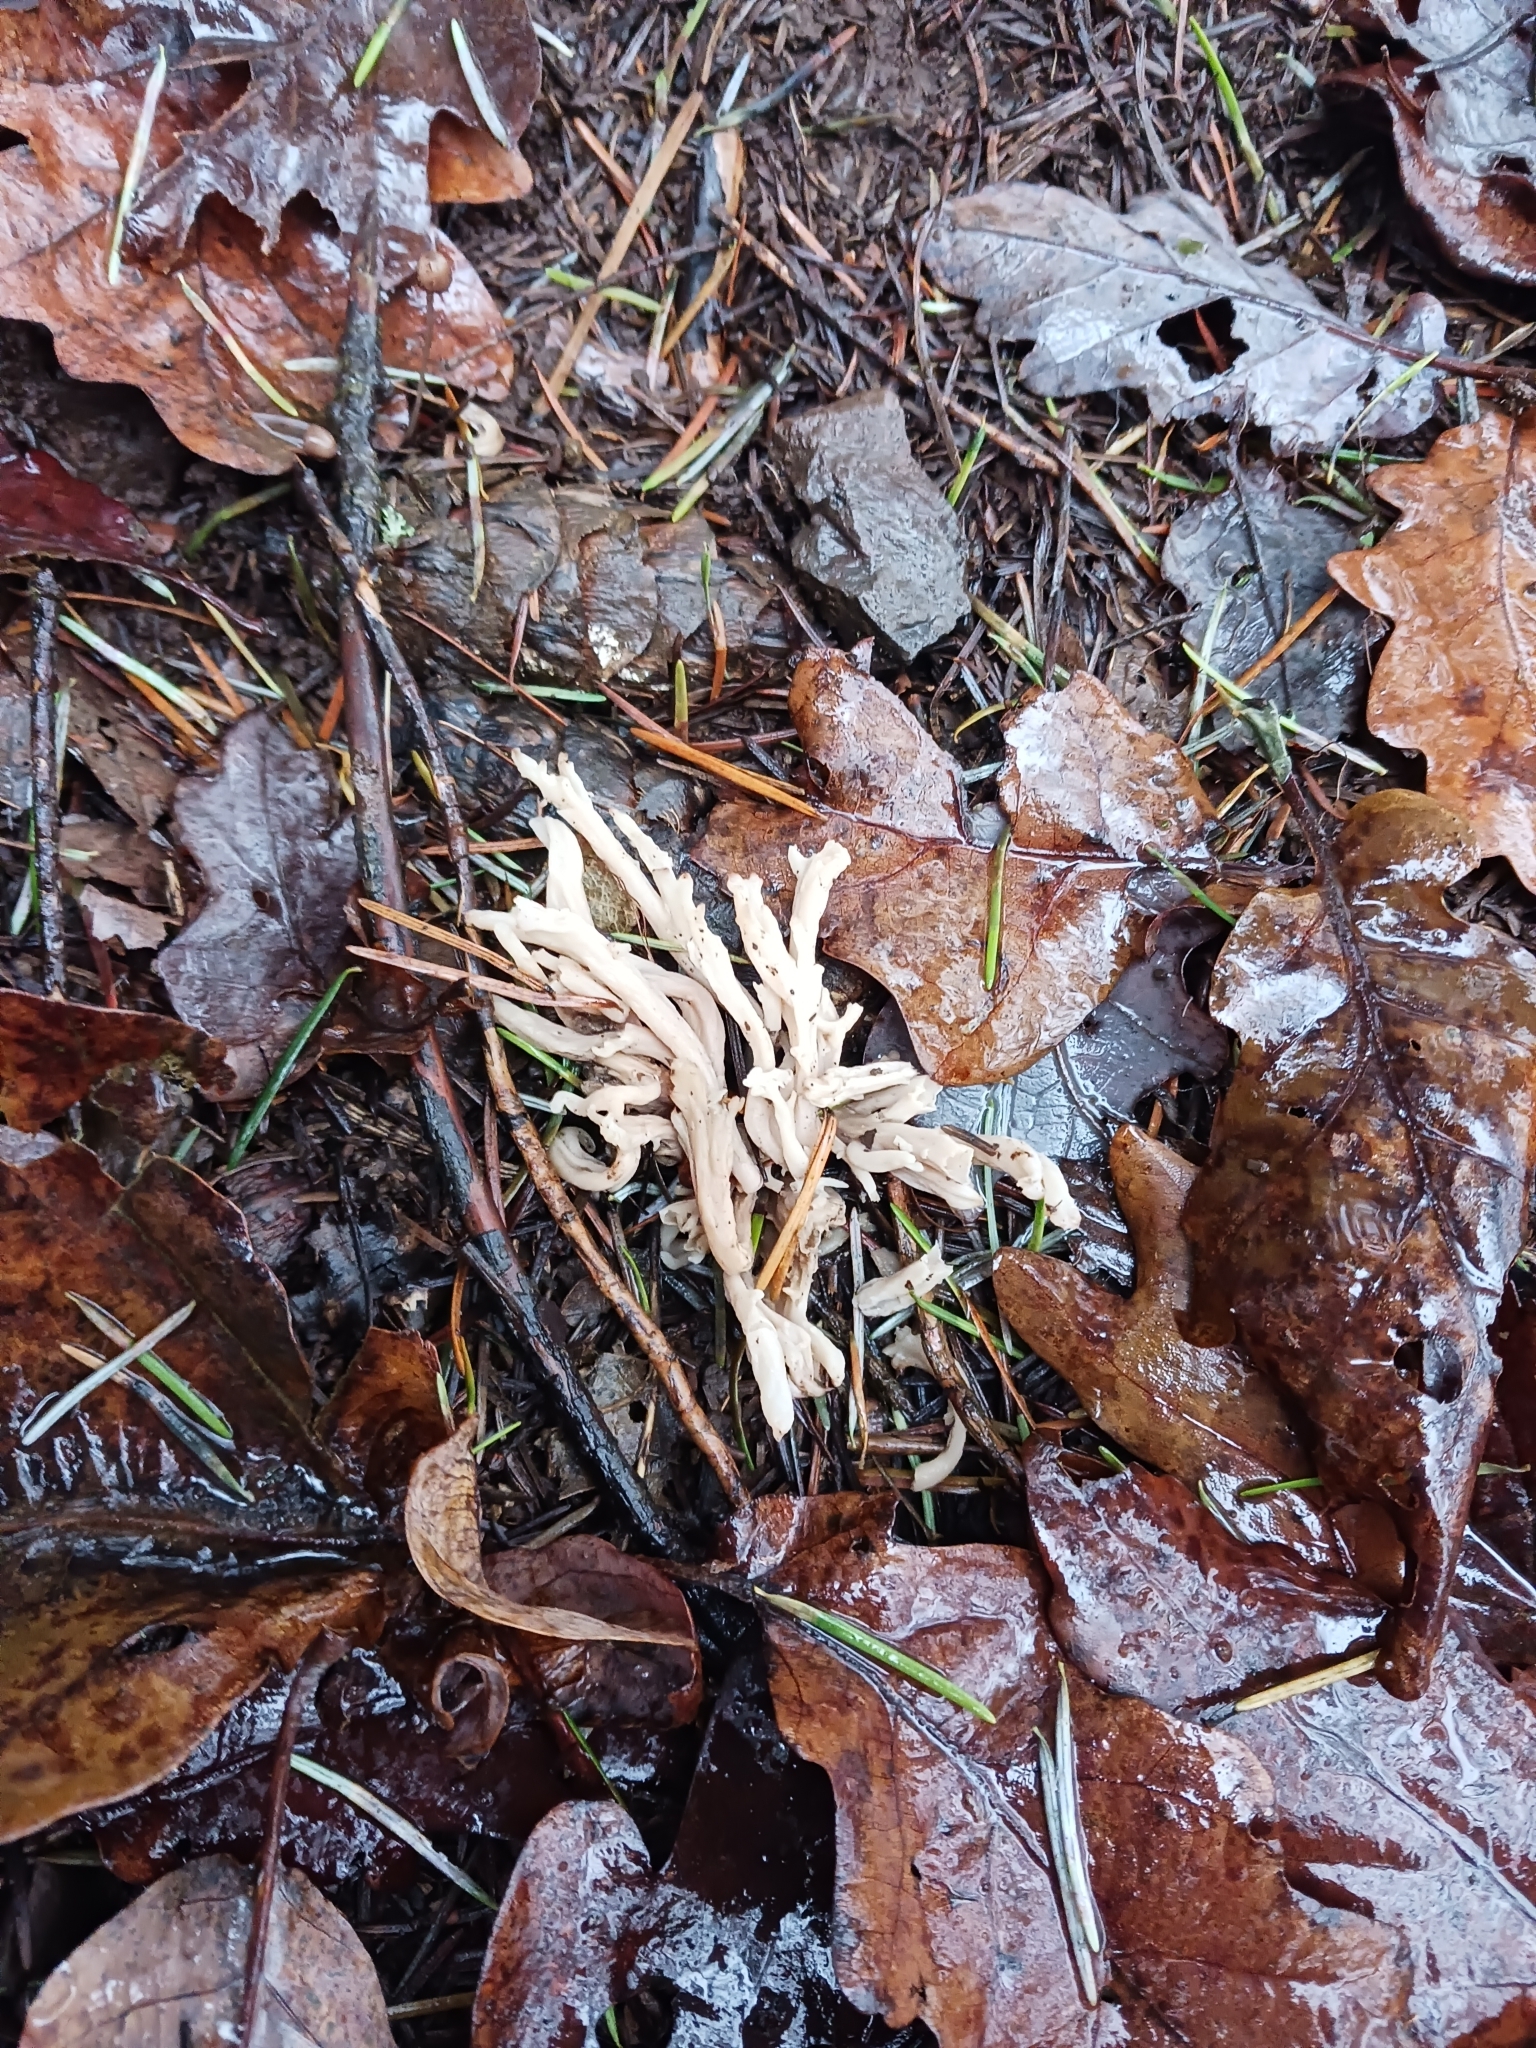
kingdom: Fungi
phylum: Basidiomycota
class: Agaricomycetes
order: Cantharellales
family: Hydnaceae
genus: Clavulina
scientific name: Clavulina rugosa
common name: Wrinkled club
